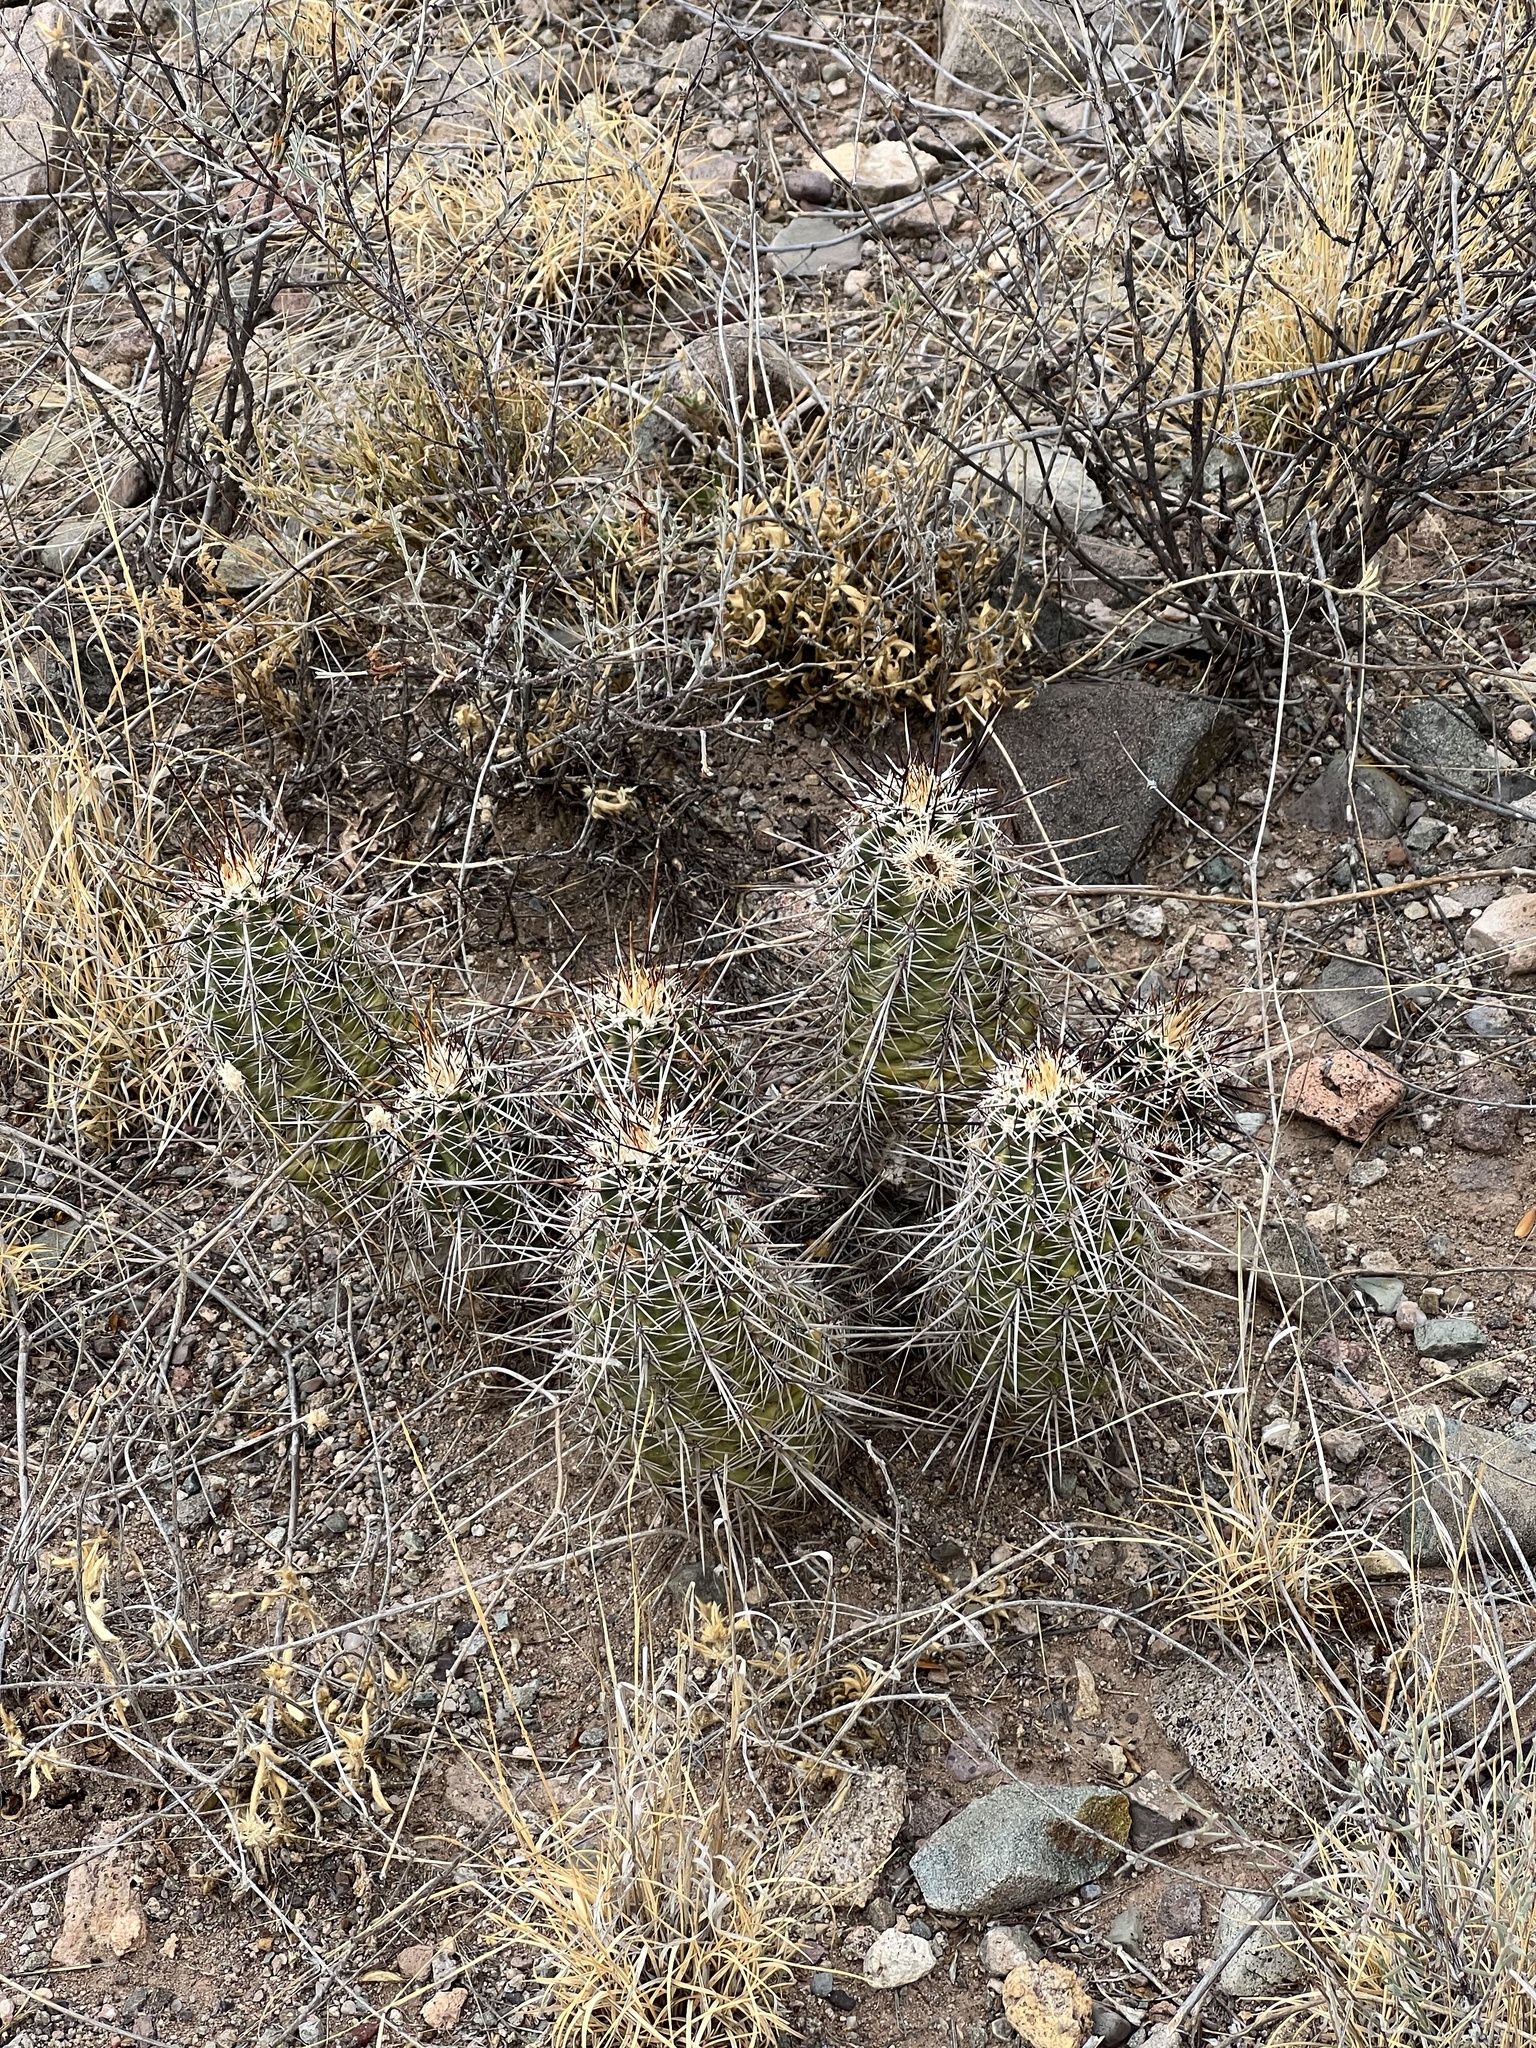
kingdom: Plantae
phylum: Tracheophyta
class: Magnoliopsida
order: Caryophyllales
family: Cactaceae
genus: Echinocereus
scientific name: Echinocereus fasciculatus
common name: Bundle hedgehog
